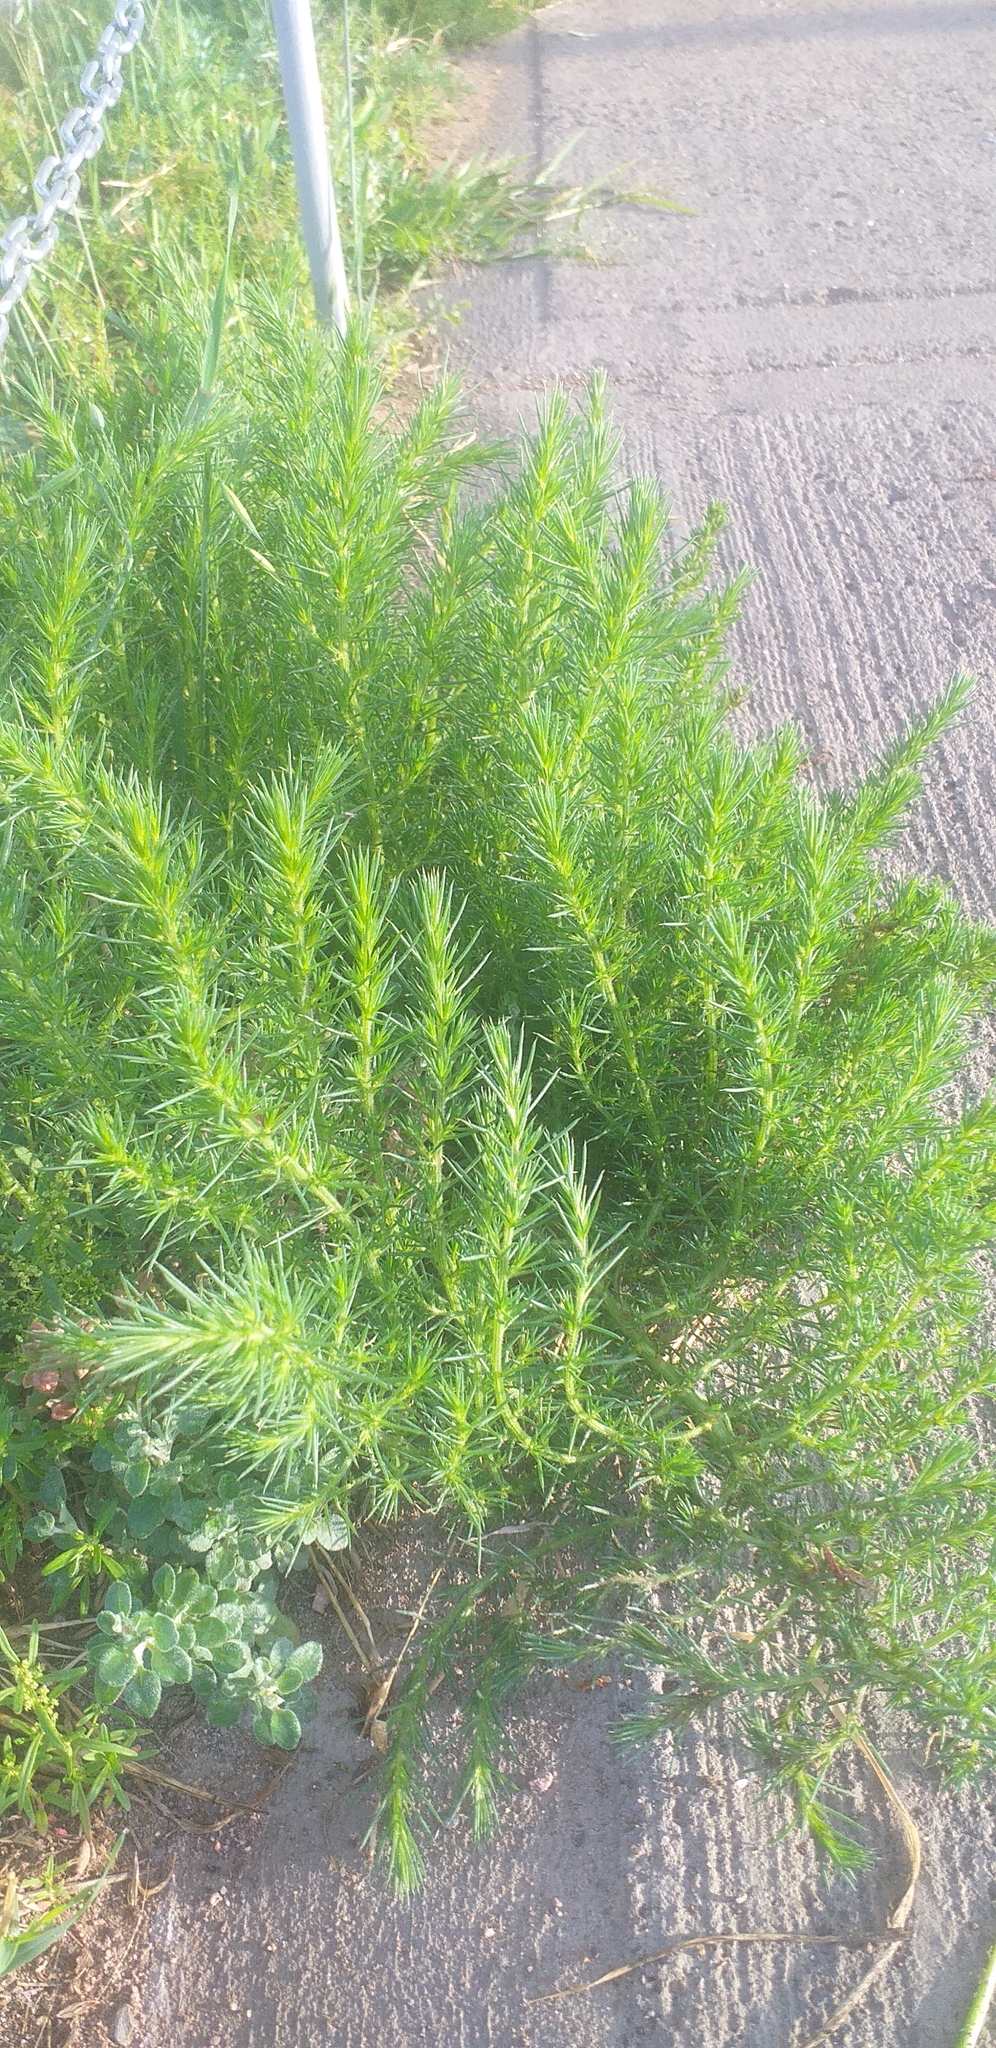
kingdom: Plantae
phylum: Tracheophyta
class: Magnoliopsida
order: Caryophyllales
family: Amaranthaceae
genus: Salsola
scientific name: Salsola collina
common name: Tumbleweed
